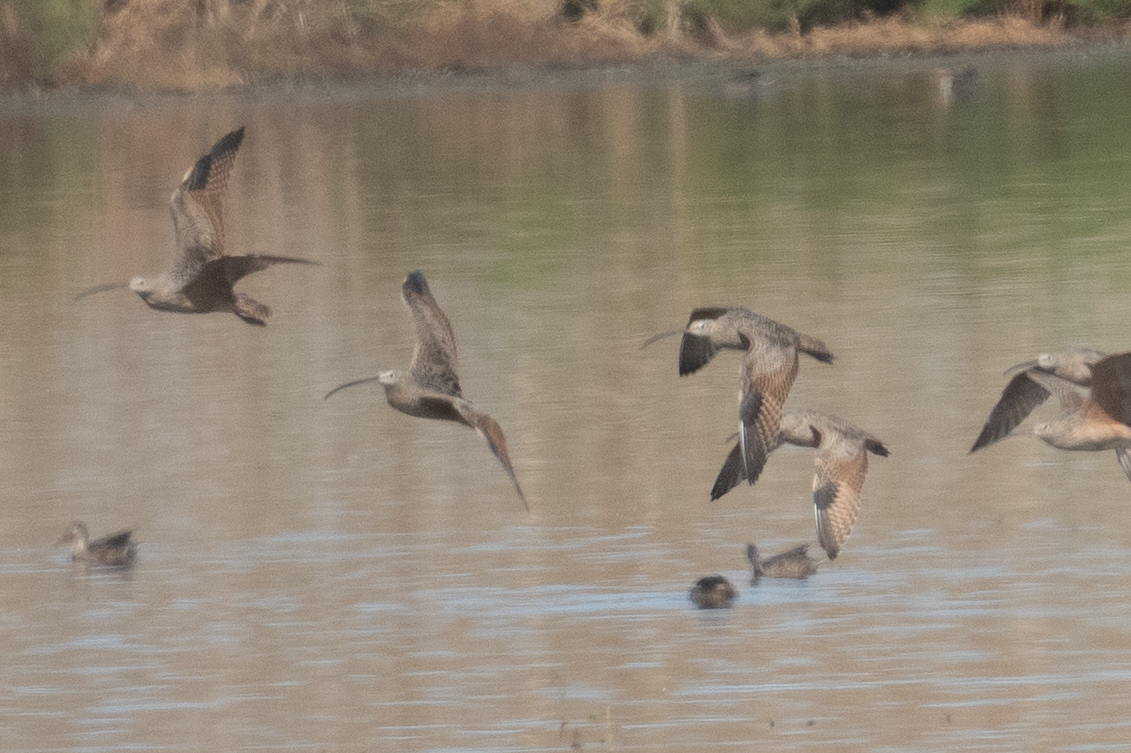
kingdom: Animalia
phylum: Chordata
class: Aves
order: Charadriiformes
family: Scolopacidae
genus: Numenius
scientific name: Numenius americanus
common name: Long-billed curlew
